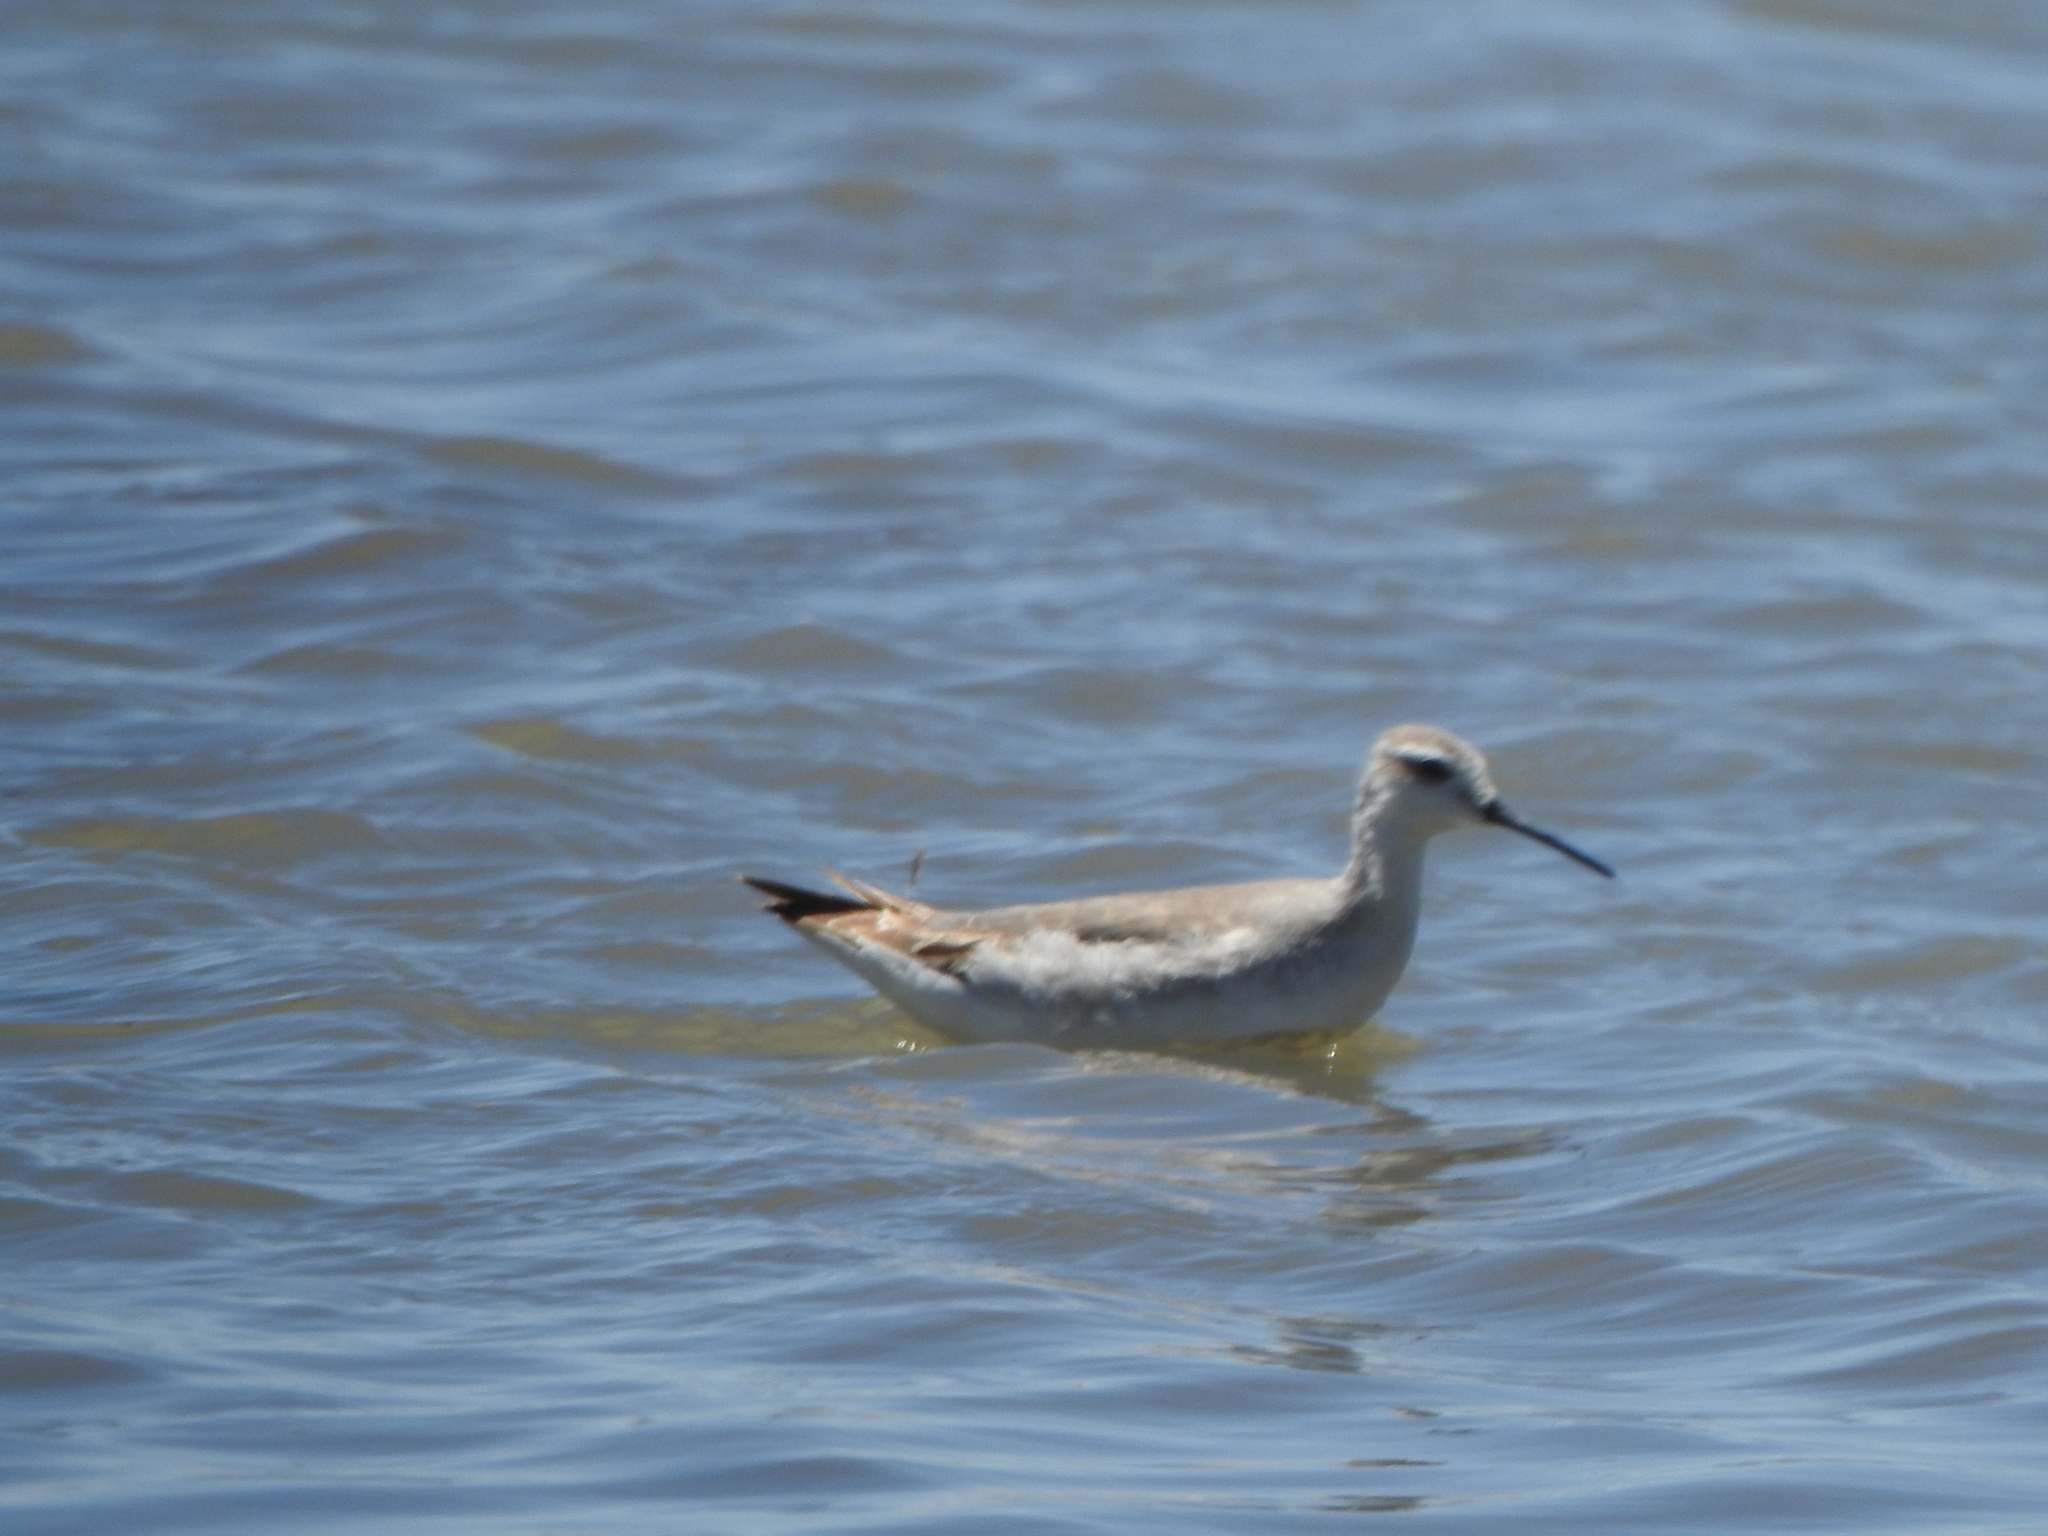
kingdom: Animalia
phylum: Chordata
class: Aves
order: Charadriiformes
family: Scolopacidae
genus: Phalaropus
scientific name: Phalaropus tricolor
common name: Wilson's phalarope
